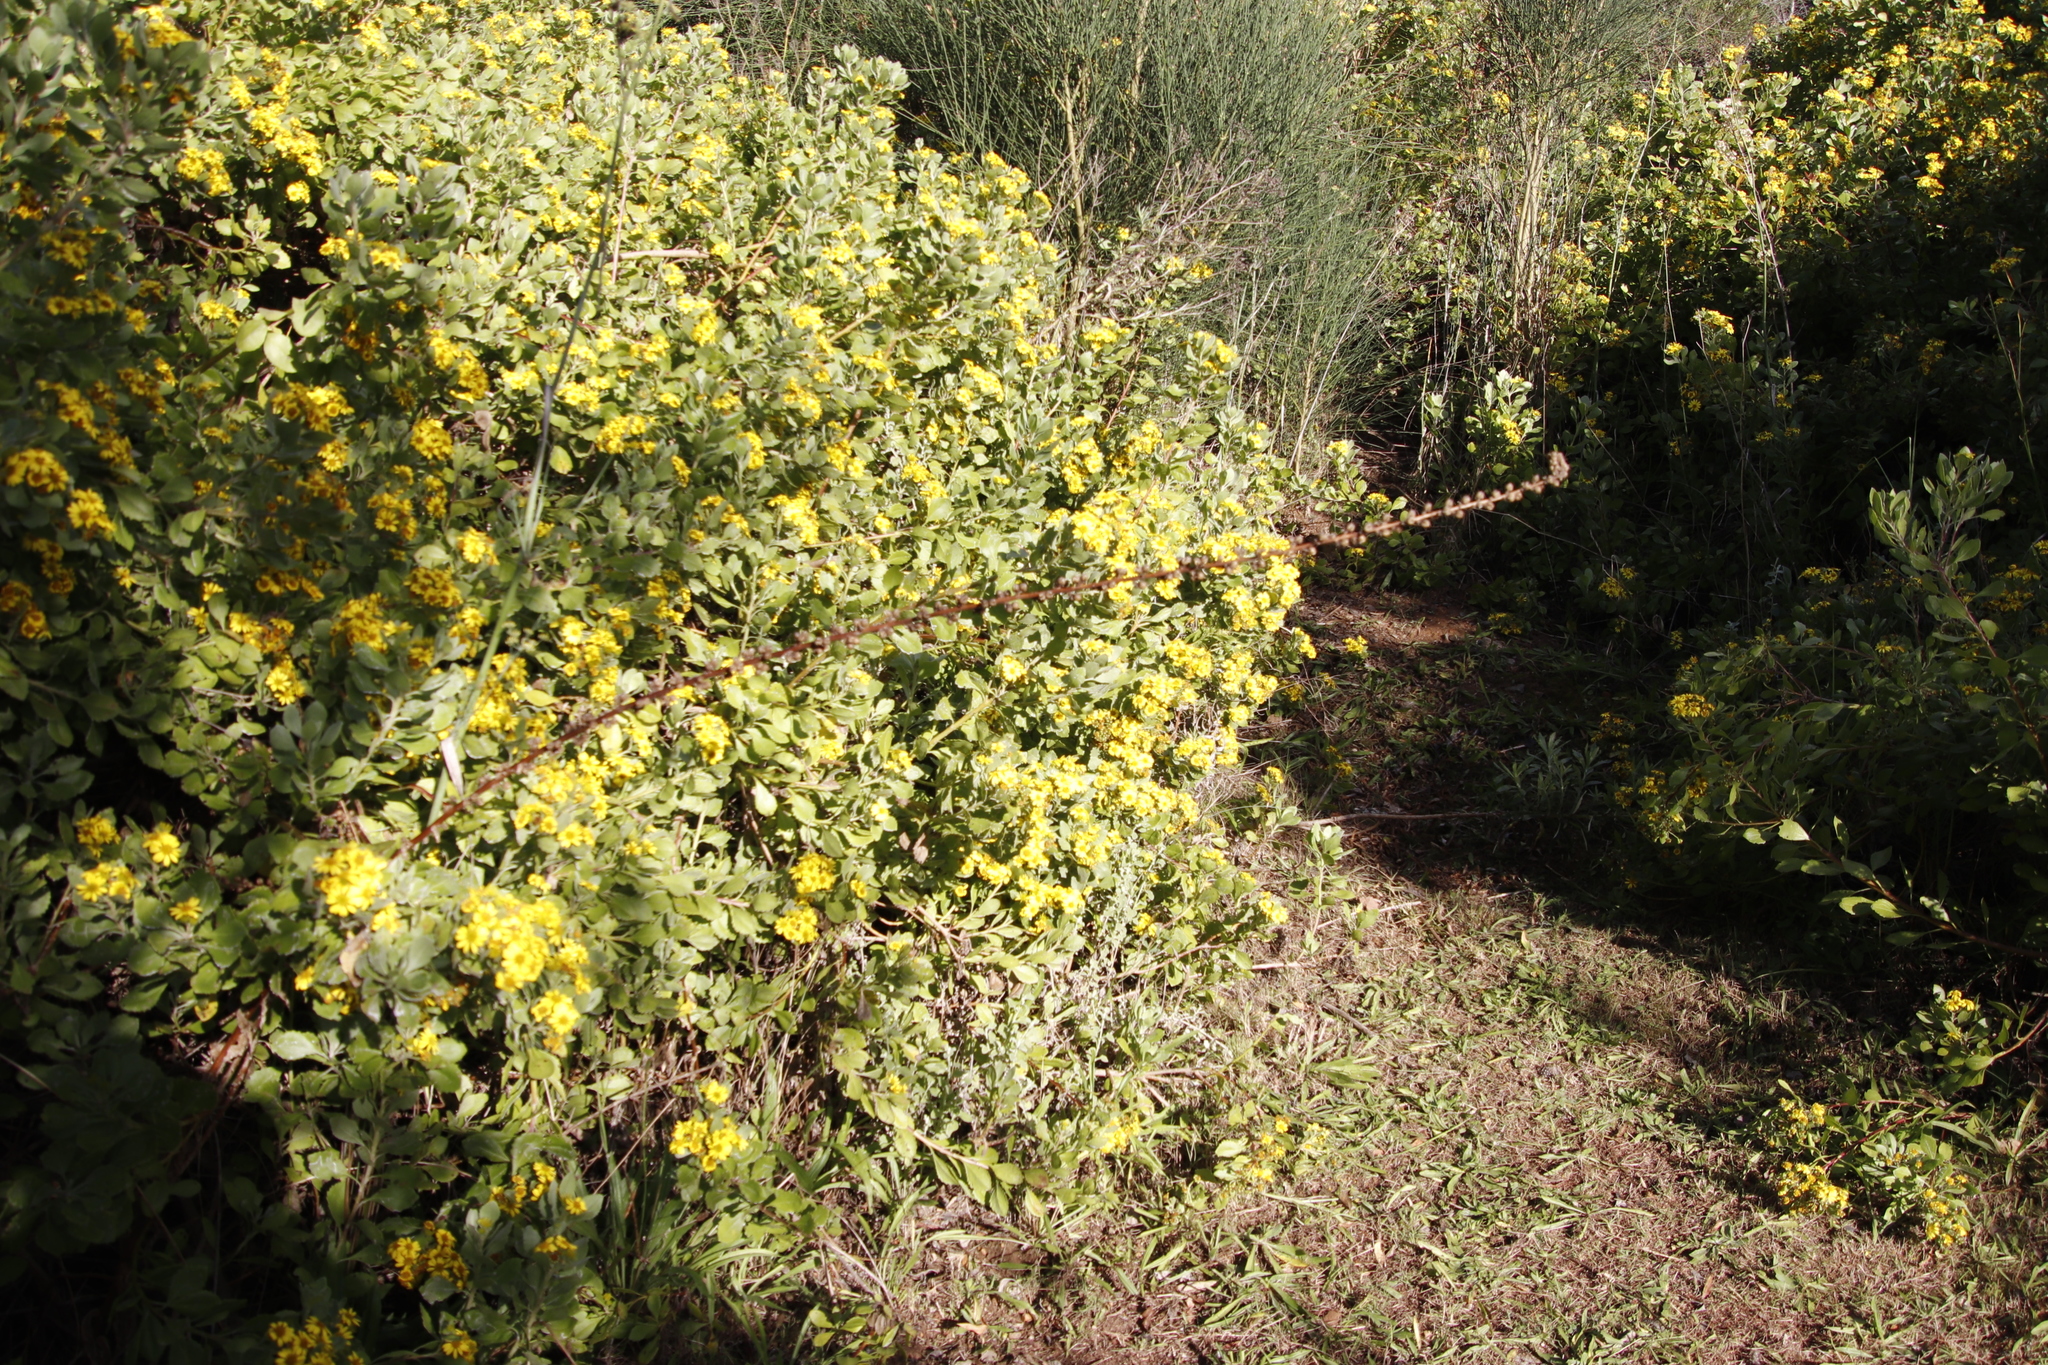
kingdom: Plantae
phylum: Tracheophyta
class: Magnoliopsida
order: Lamiales
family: Scrophulariaceae
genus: Verbascum
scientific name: Verbascum virgatum
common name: Twiggy mullein
